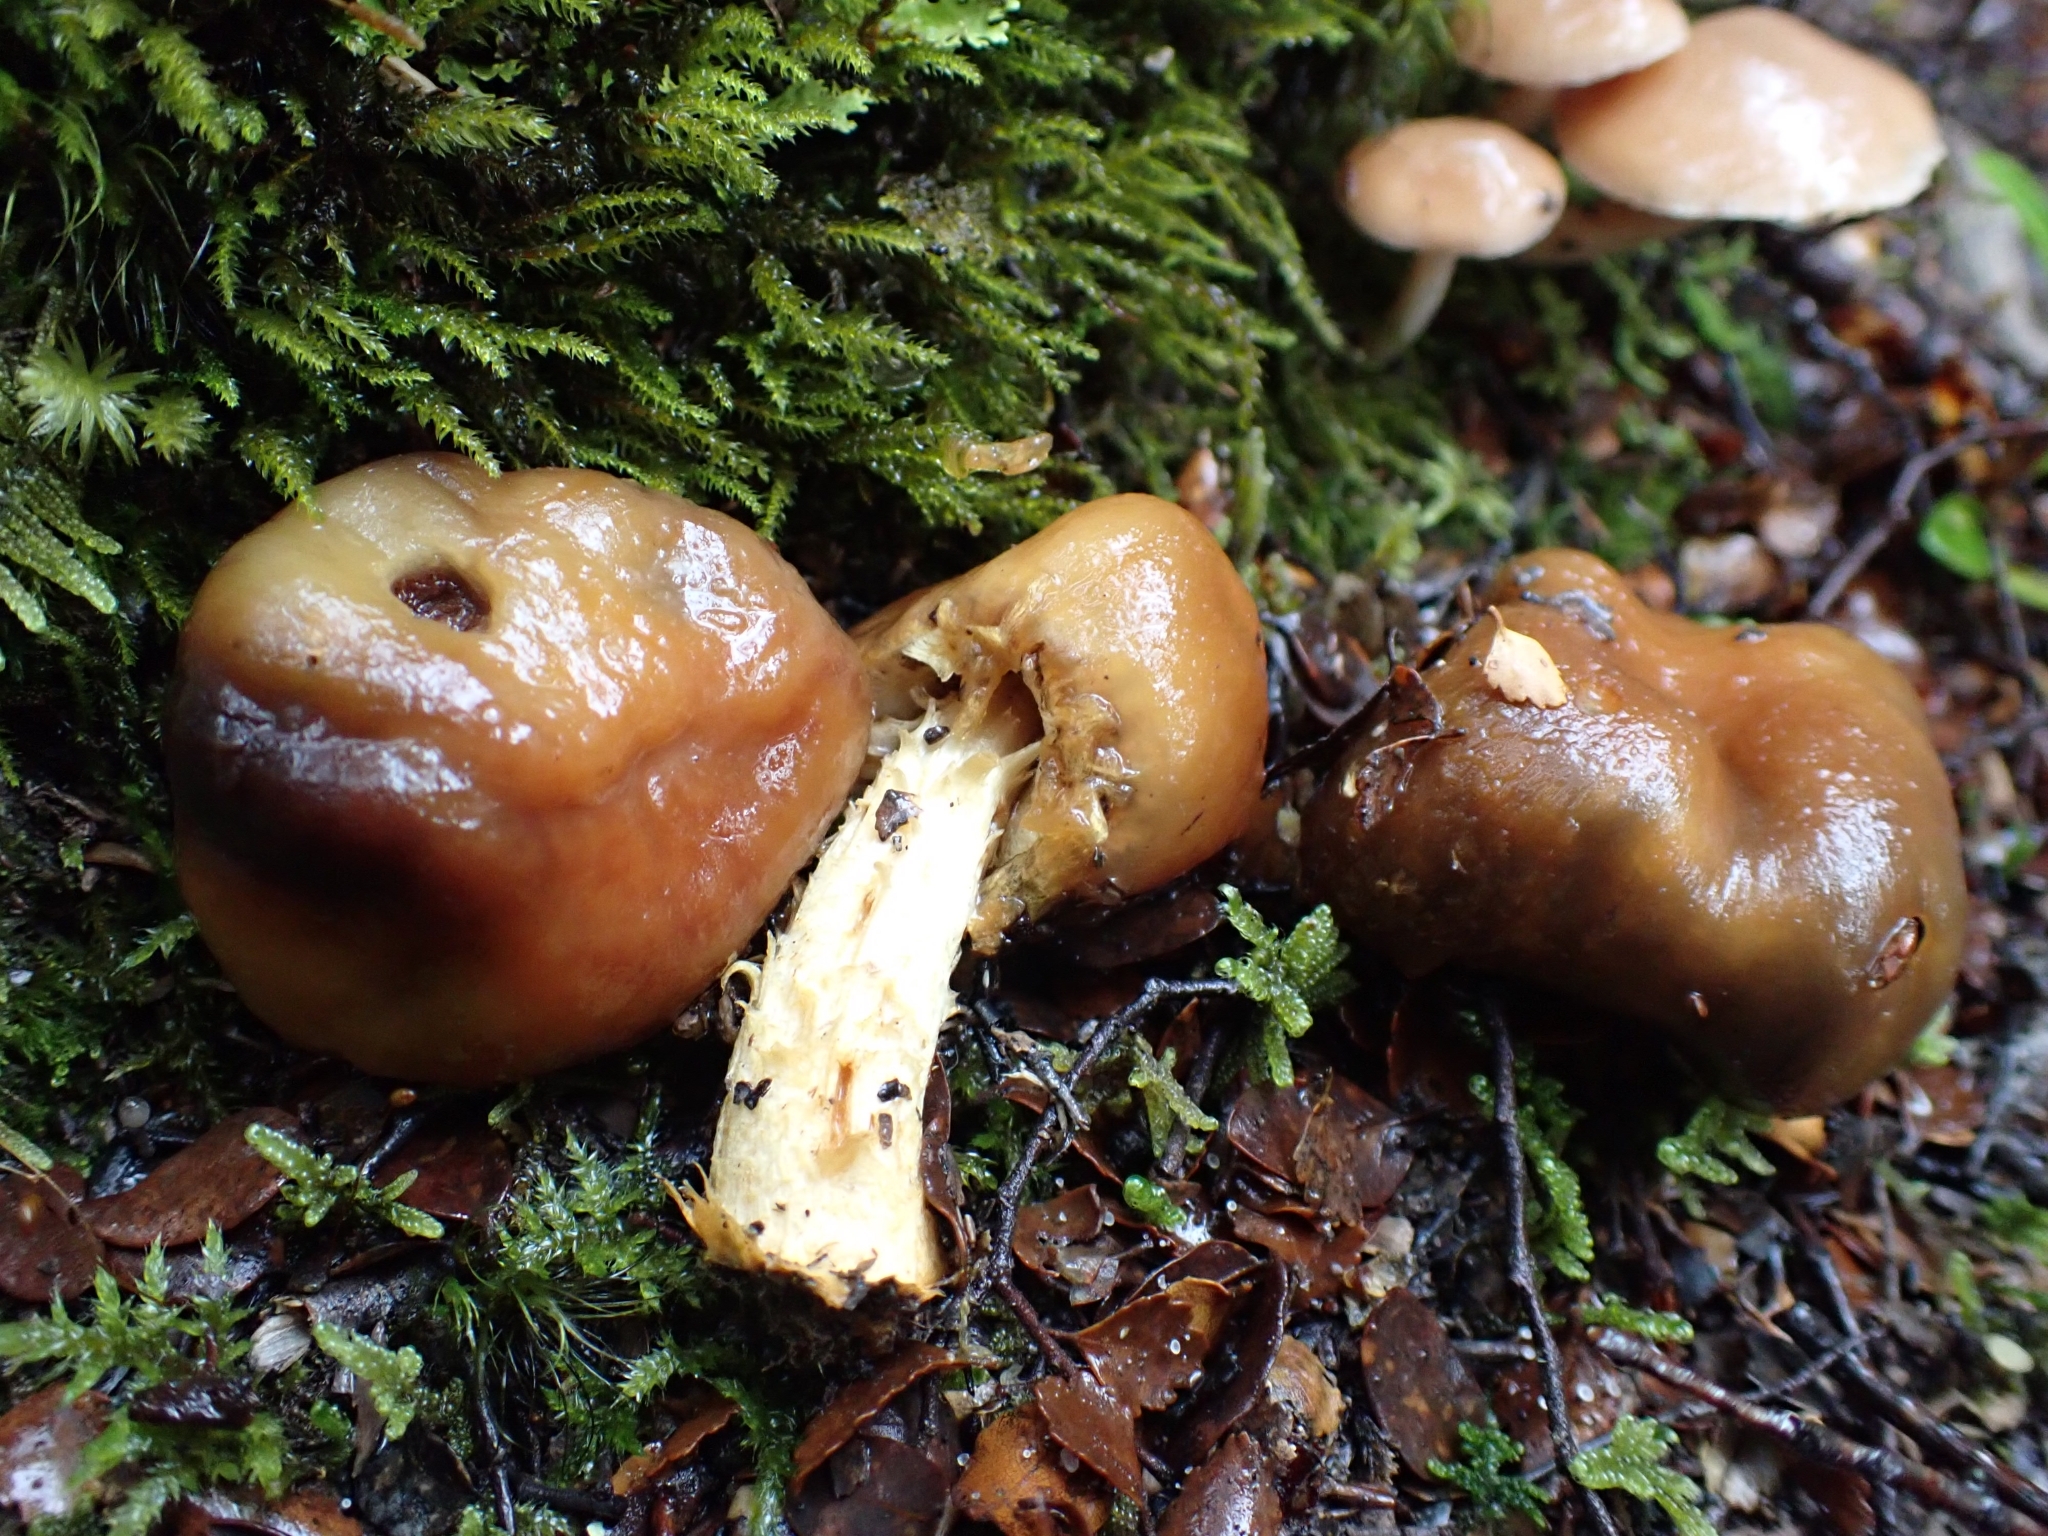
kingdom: Fungi
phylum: Basidiomycota
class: Agaricomycetes
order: Agaricales
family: Cortinariaceae
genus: Cortinarius
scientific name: Cortinarius epiphaeus
